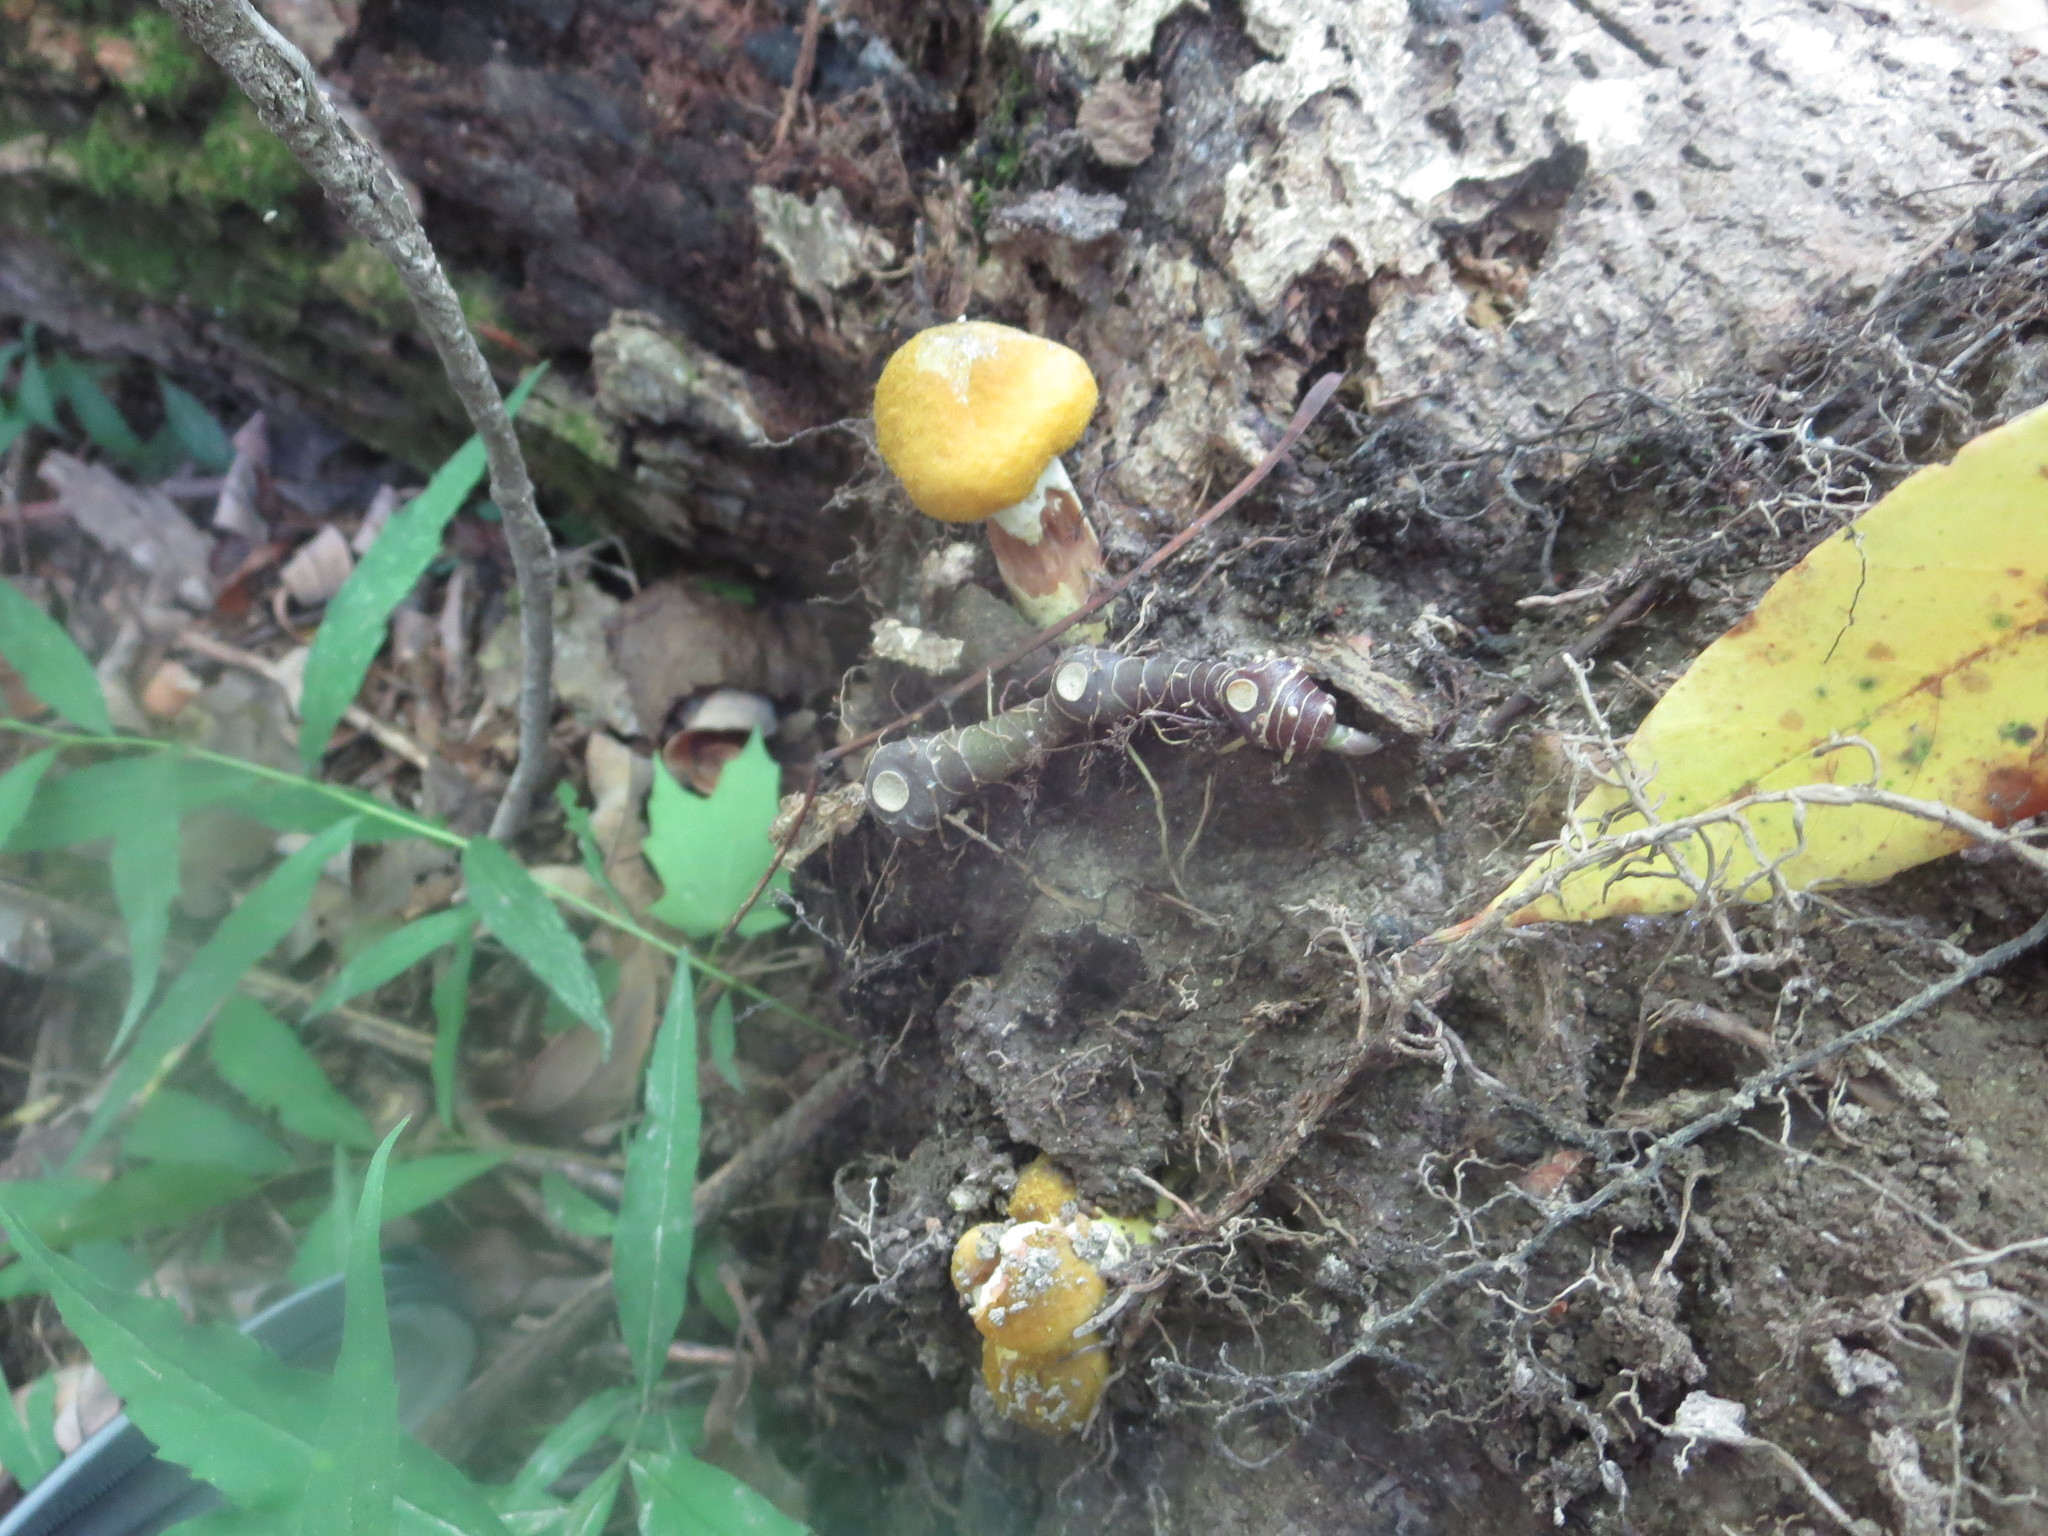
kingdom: Fungi
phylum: Basidiomycota
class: Agaricomycetes
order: Agaricales
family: Physalacriaceae
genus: Armillaria
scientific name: Armillaria mellea
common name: Honey fungus
